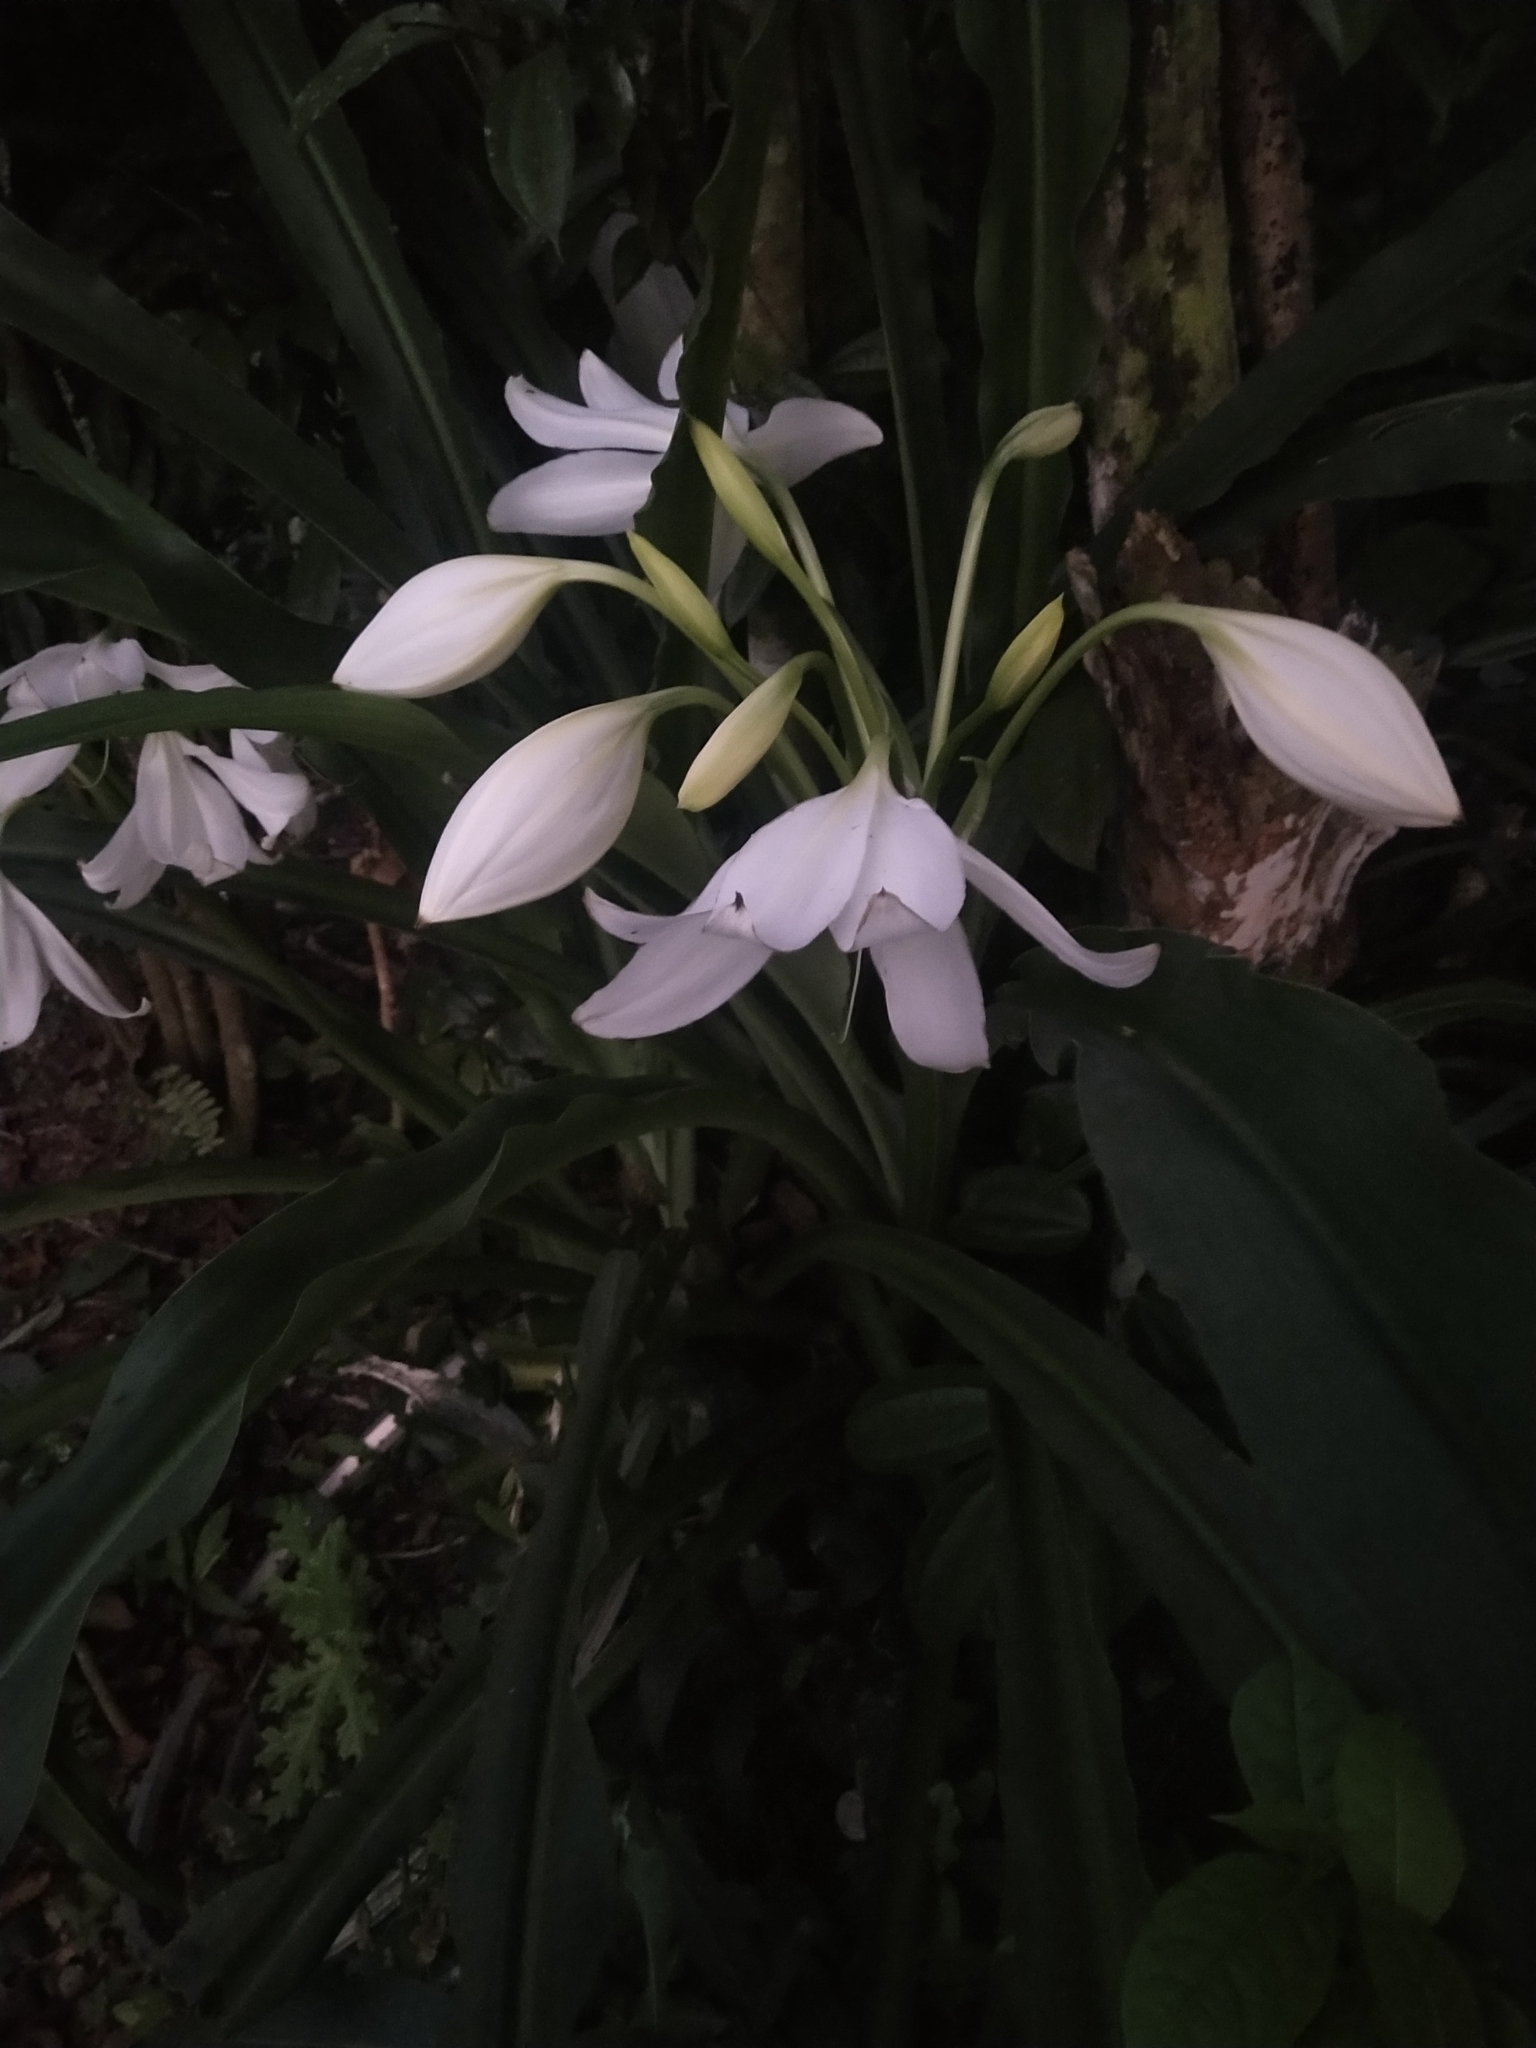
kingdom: Plantae
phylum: Tracheophyta
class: Liliopsida
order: Asparagales
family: Amaryllidaceae
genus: Crinum
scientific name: Crinum moorei
